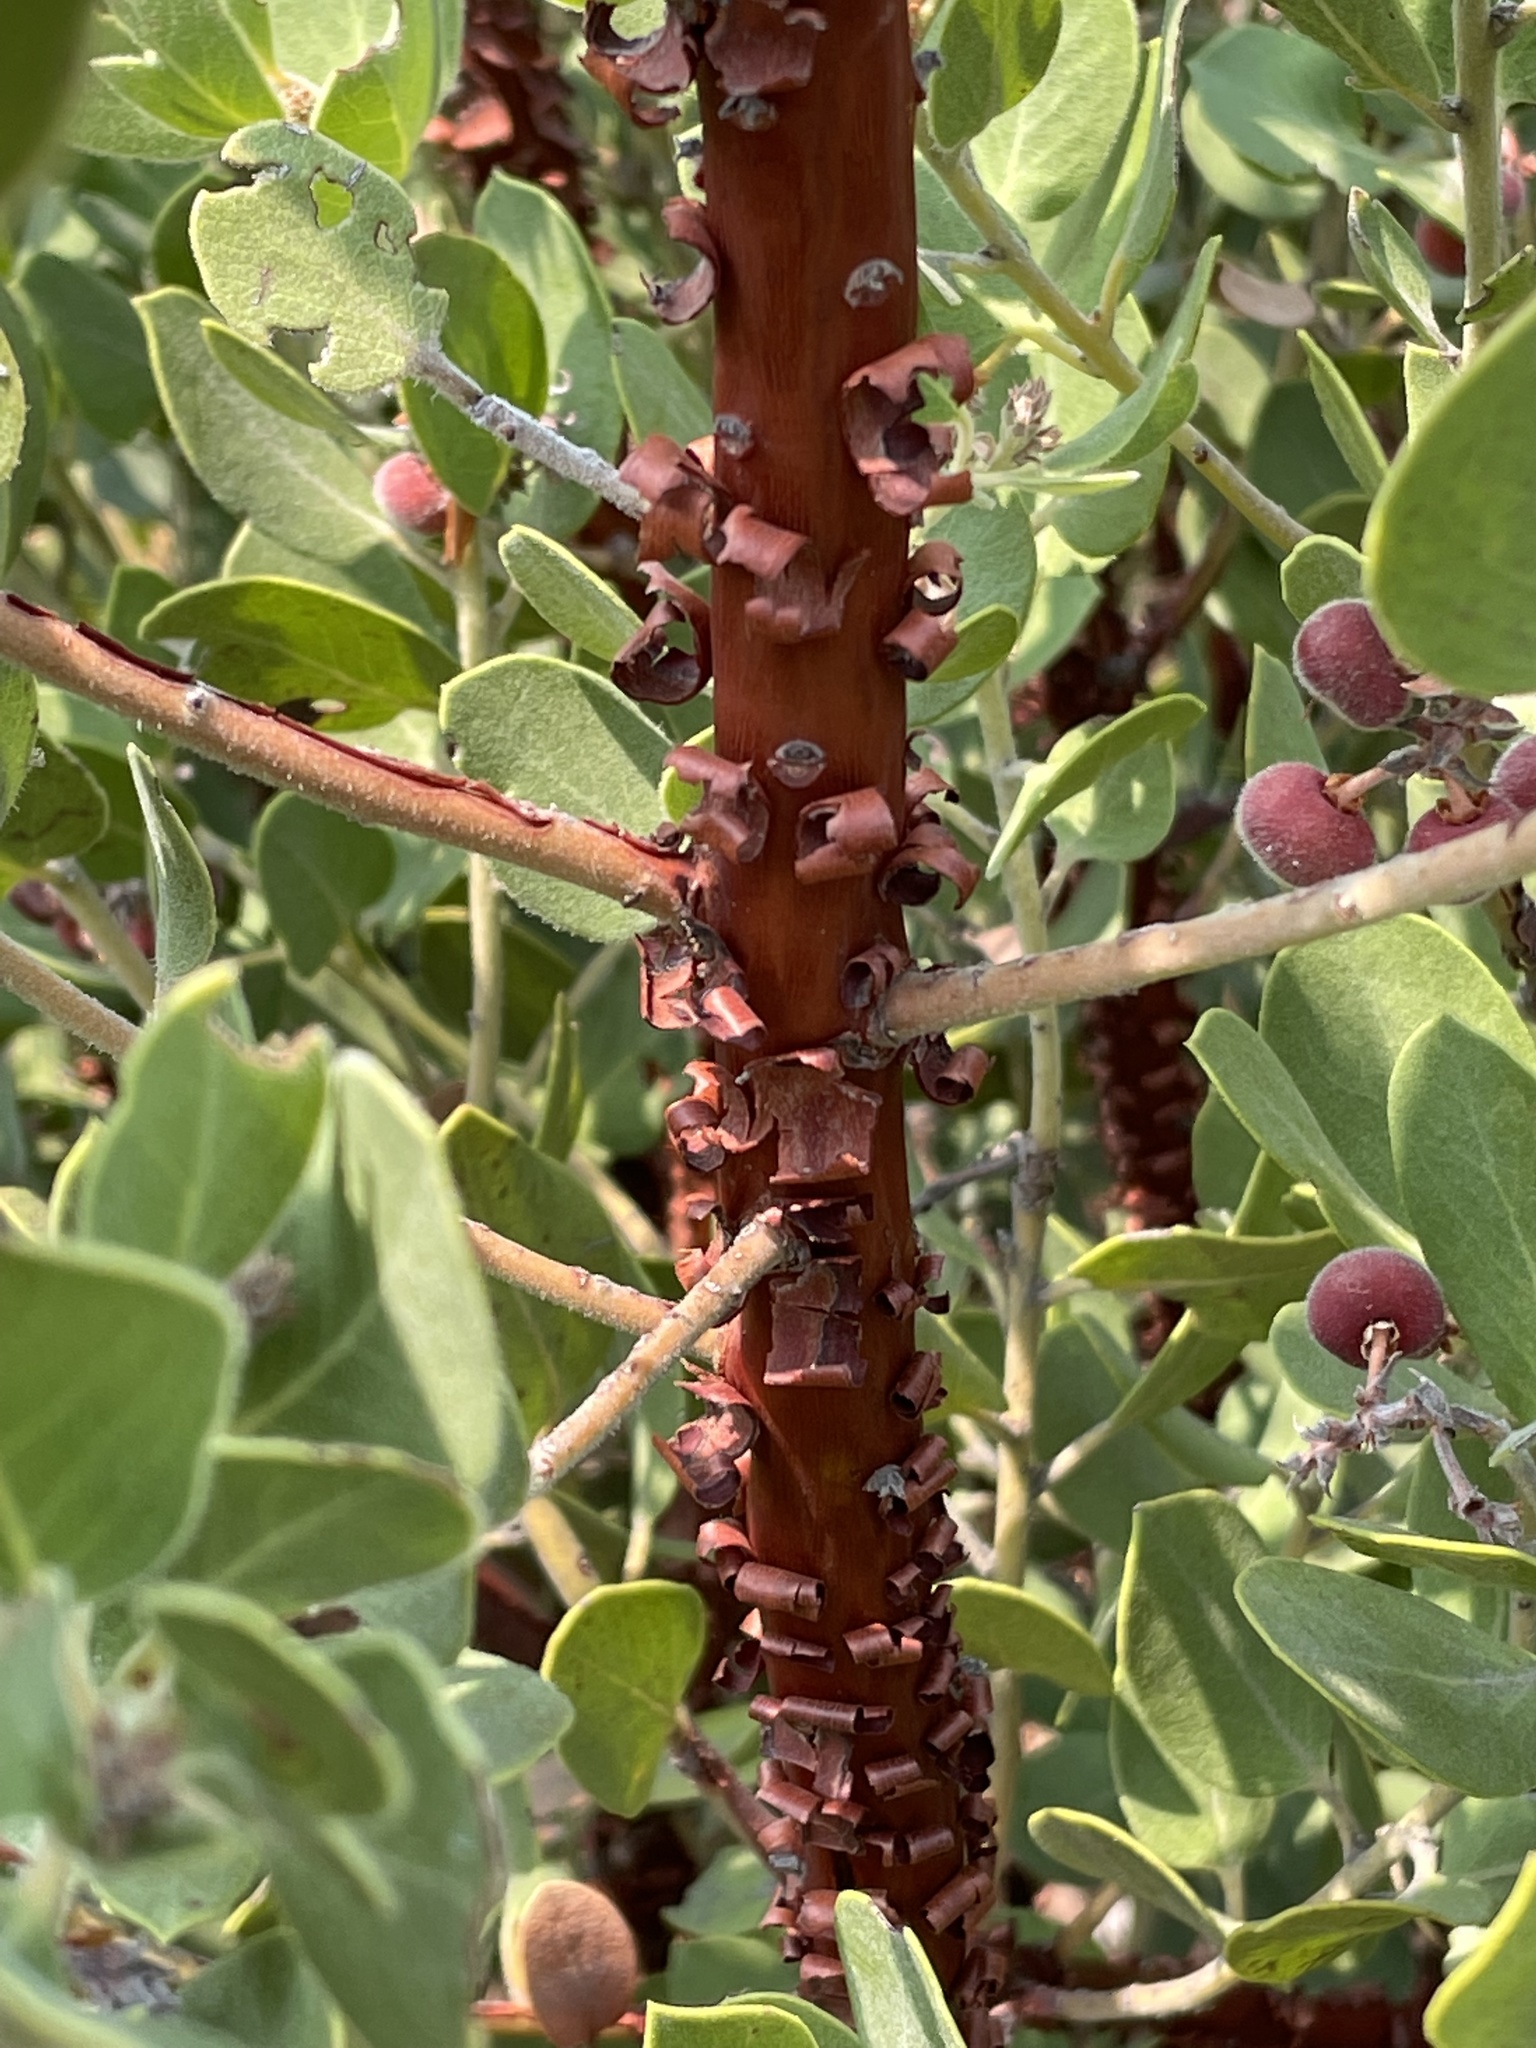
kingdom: Plantae
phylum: Tracheophyta
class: Magnoliopsida
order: Ericales
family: Ericaceae
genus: Arctostaphylos
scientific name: Arctostaphylos glandulosa
